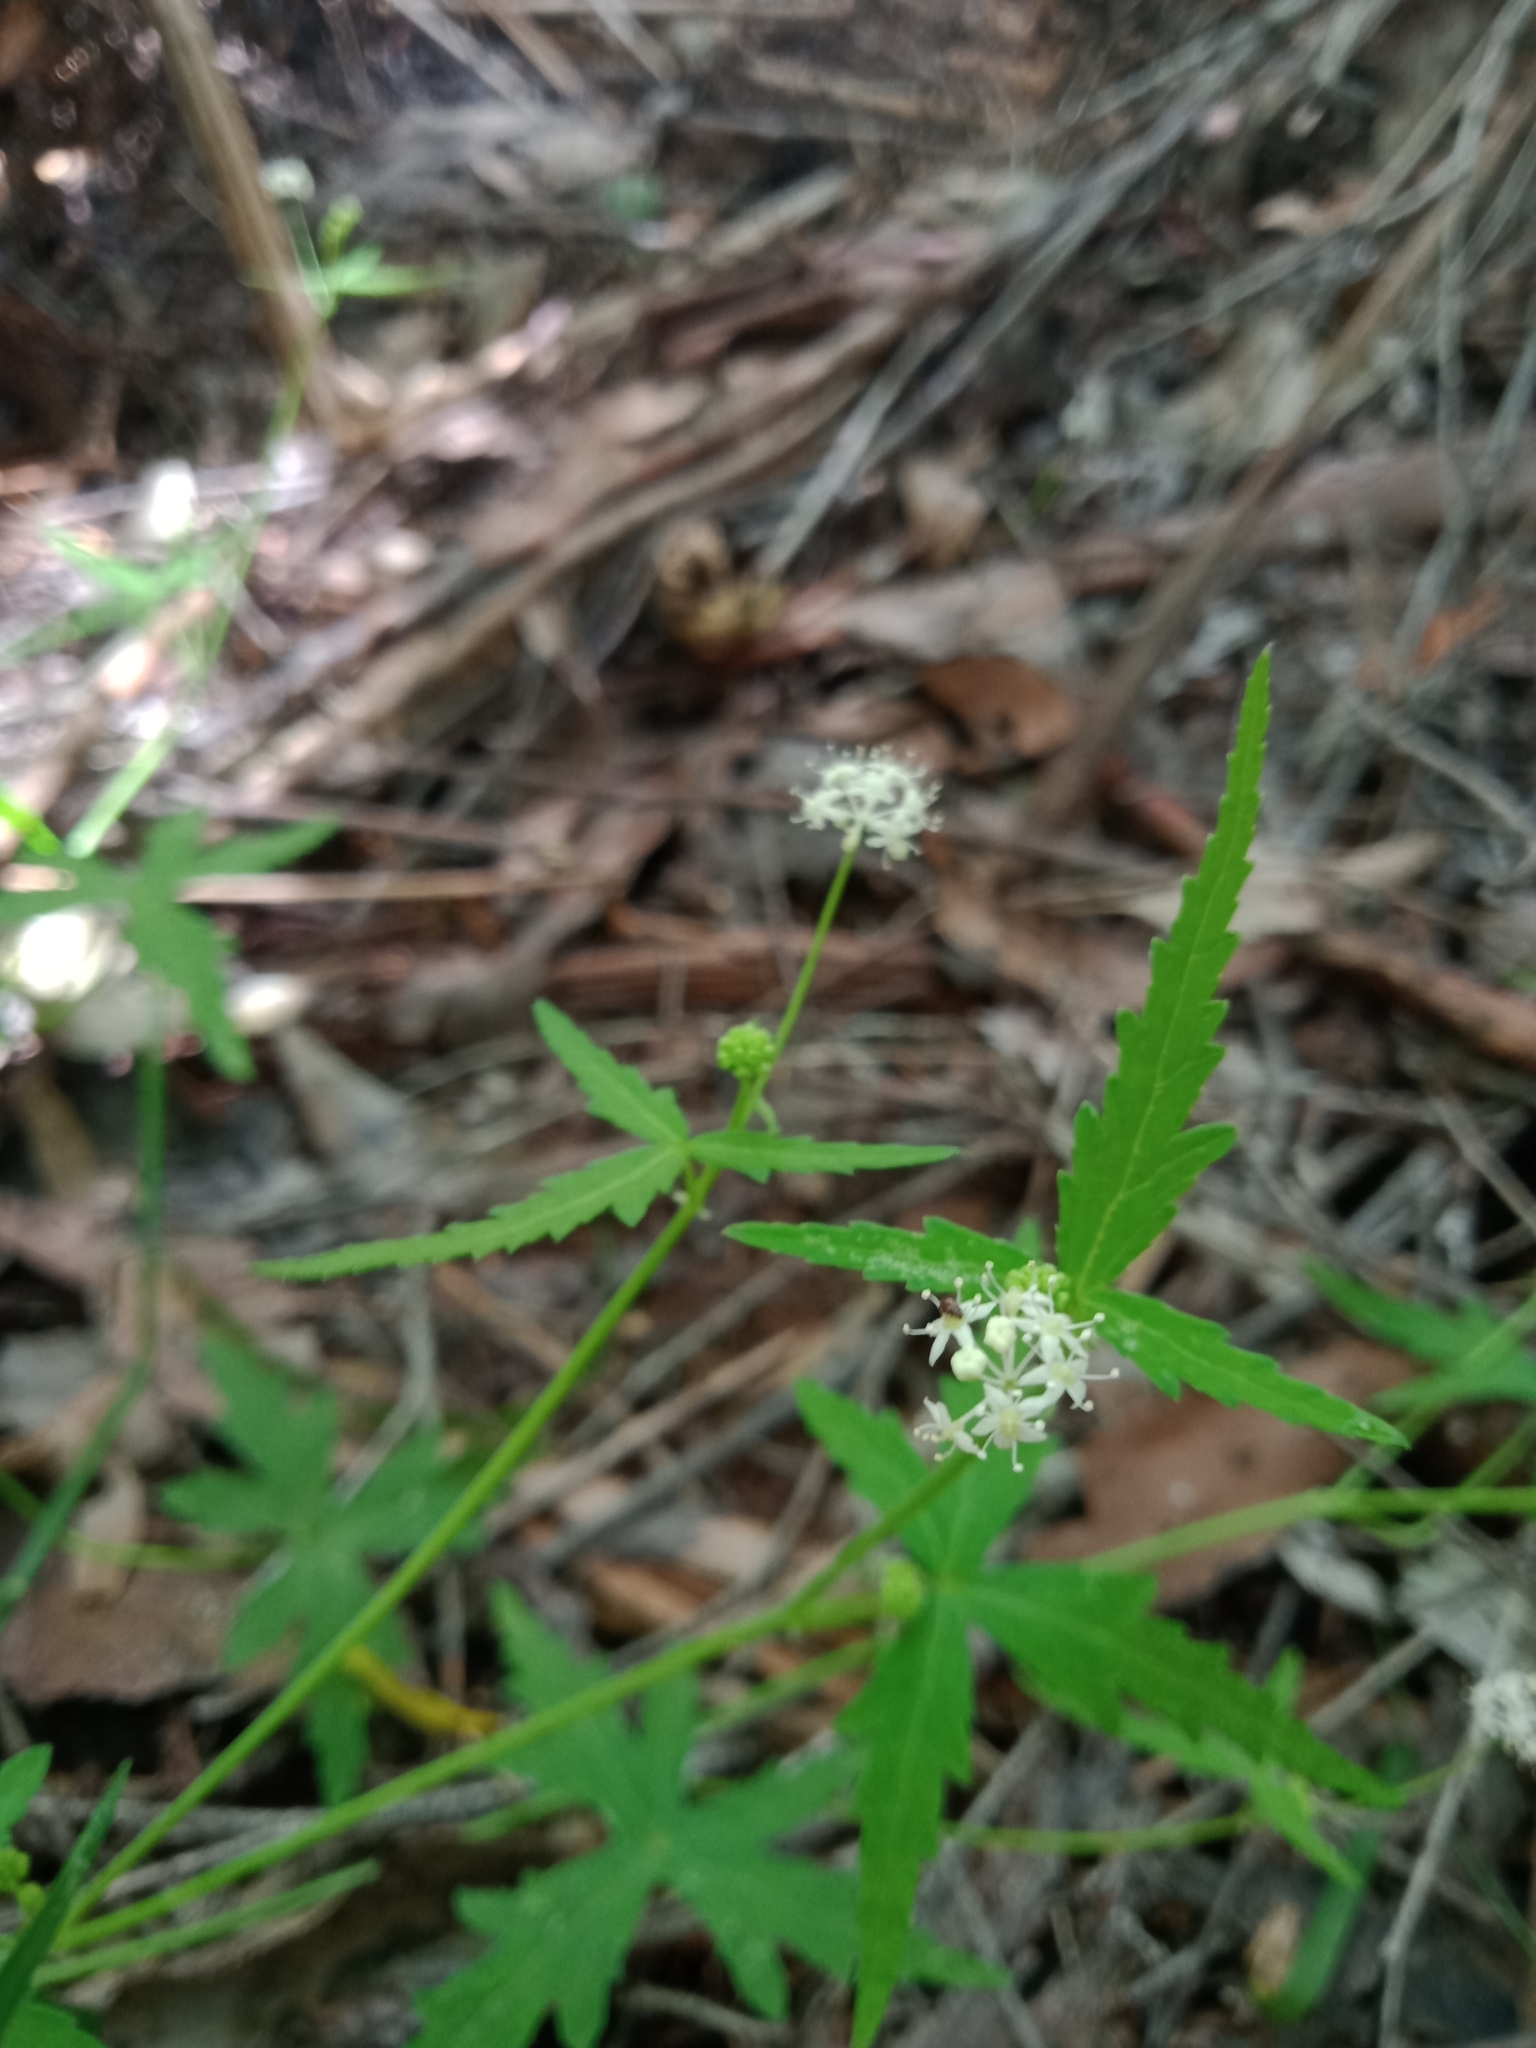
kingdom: Plantae
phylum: Tracheophyta
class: Magnoliopsida
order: Apiales
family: Araliaceae
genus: Hydrocotyle
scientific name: Hydrocotyle geraniifolia
